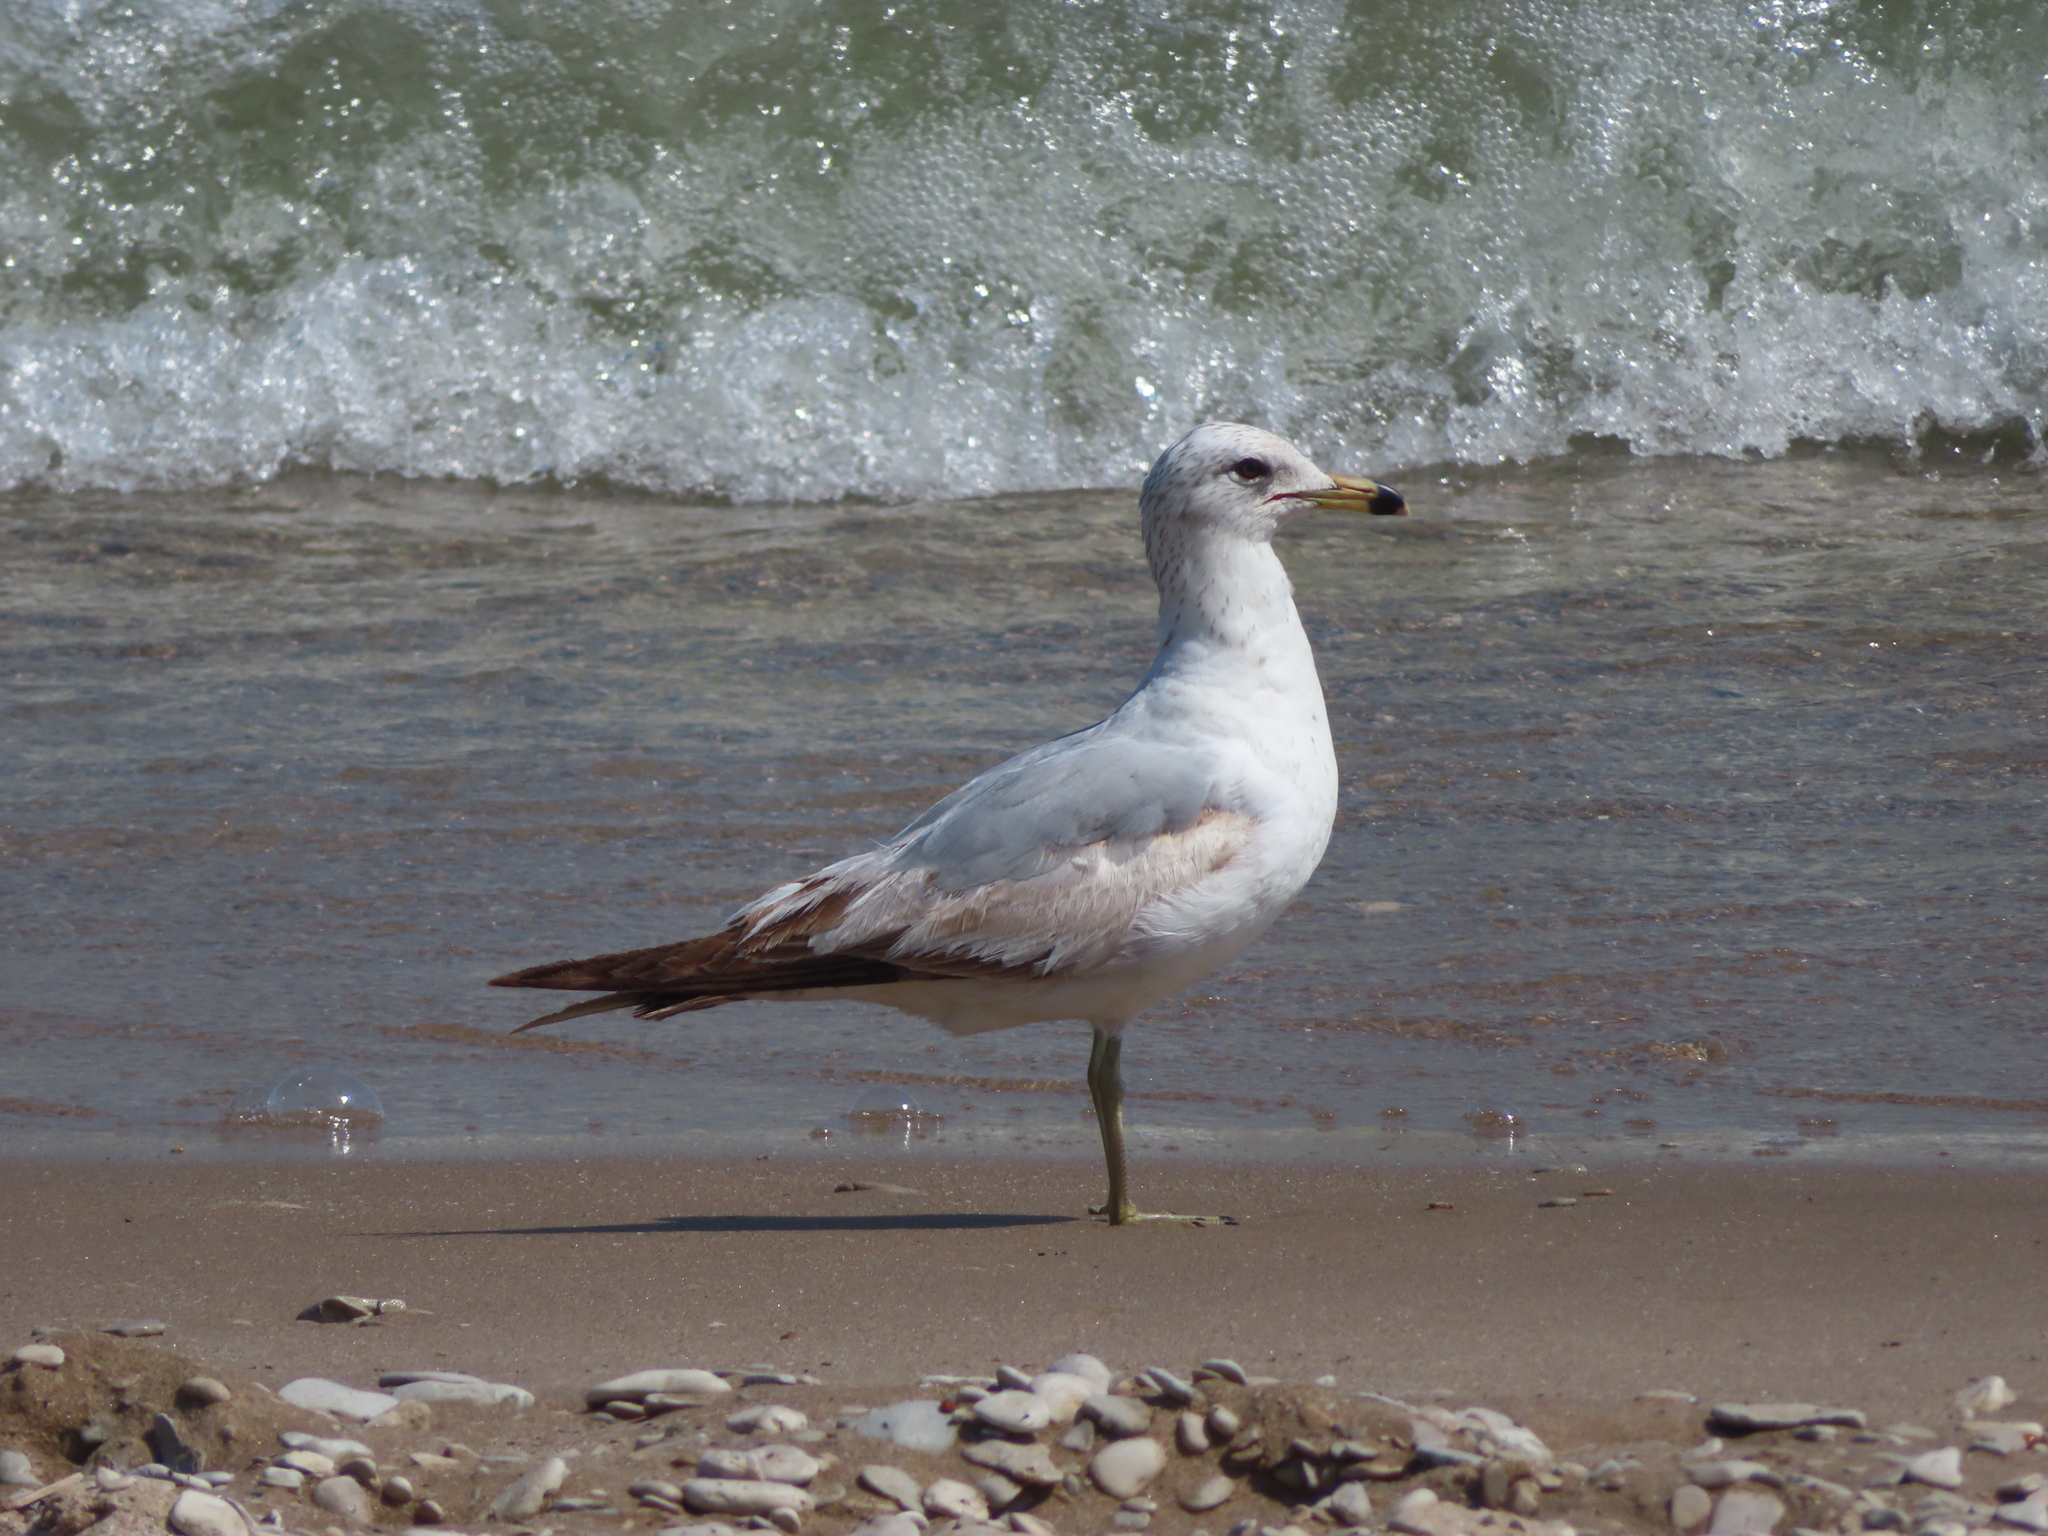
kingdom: Animalia
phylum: Chordata
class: Aves
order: Charadriiformes
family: Laridae
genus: Larus
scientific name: Larus delawarensis
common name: Ring-billed gull
